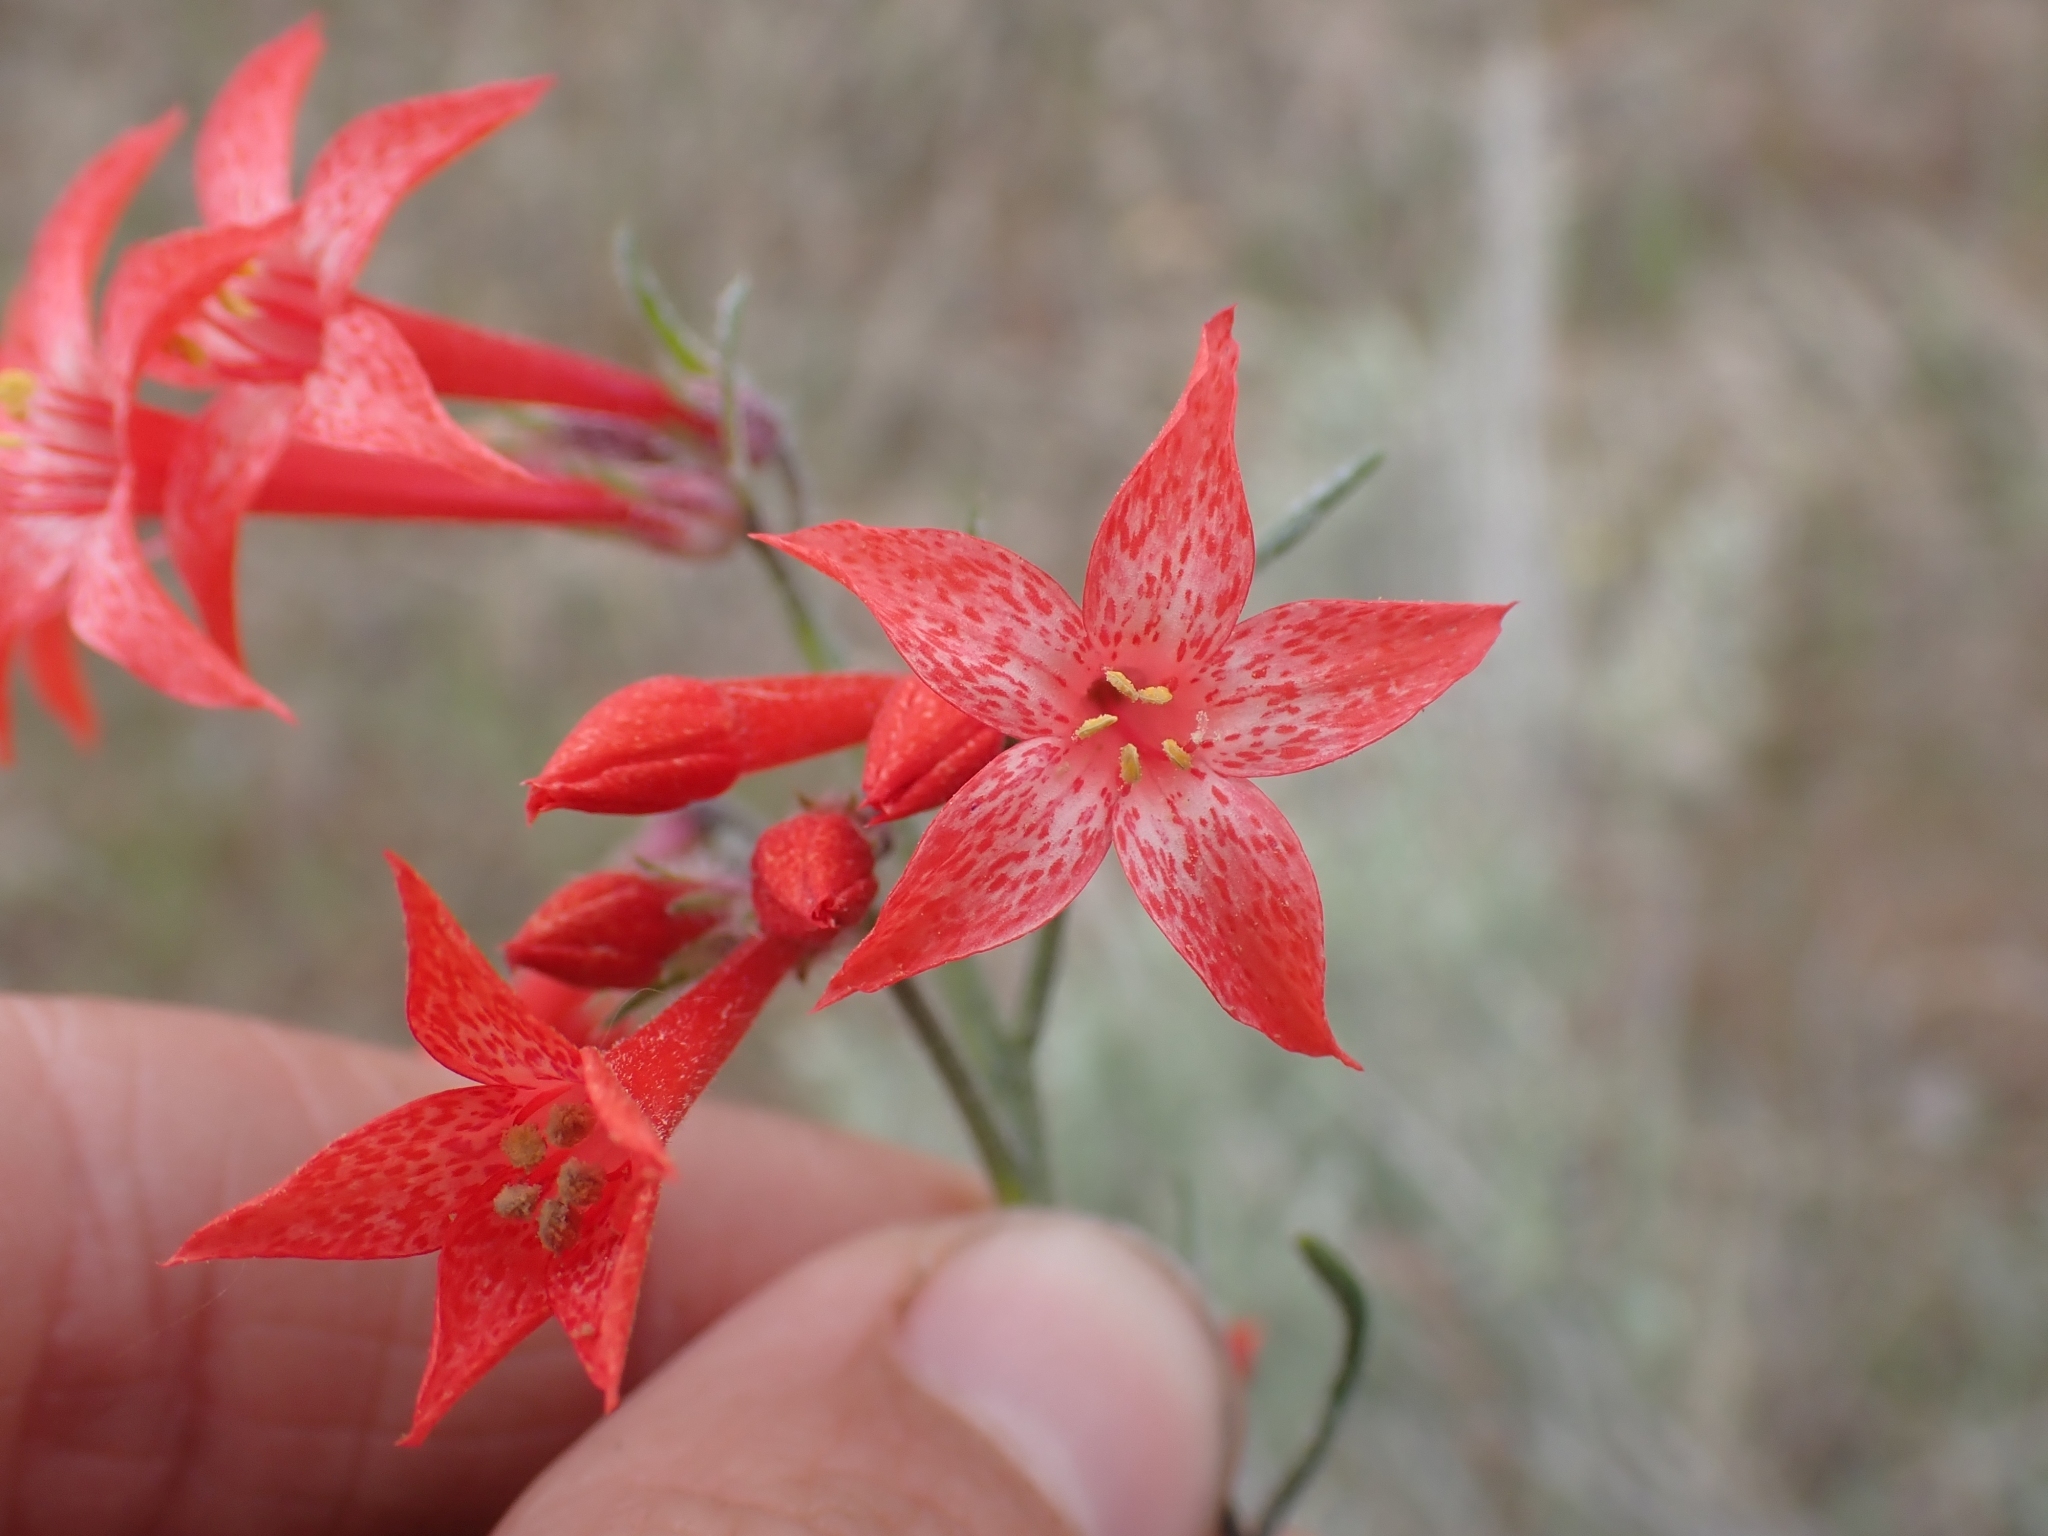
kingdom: Plantae
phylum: Tracheophyta
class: Magnoliopsida
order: Ericales
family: Polemoniaceae
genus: Ipomopsis
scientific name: Ipomopsis aggregata
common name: Scarlet gilia
